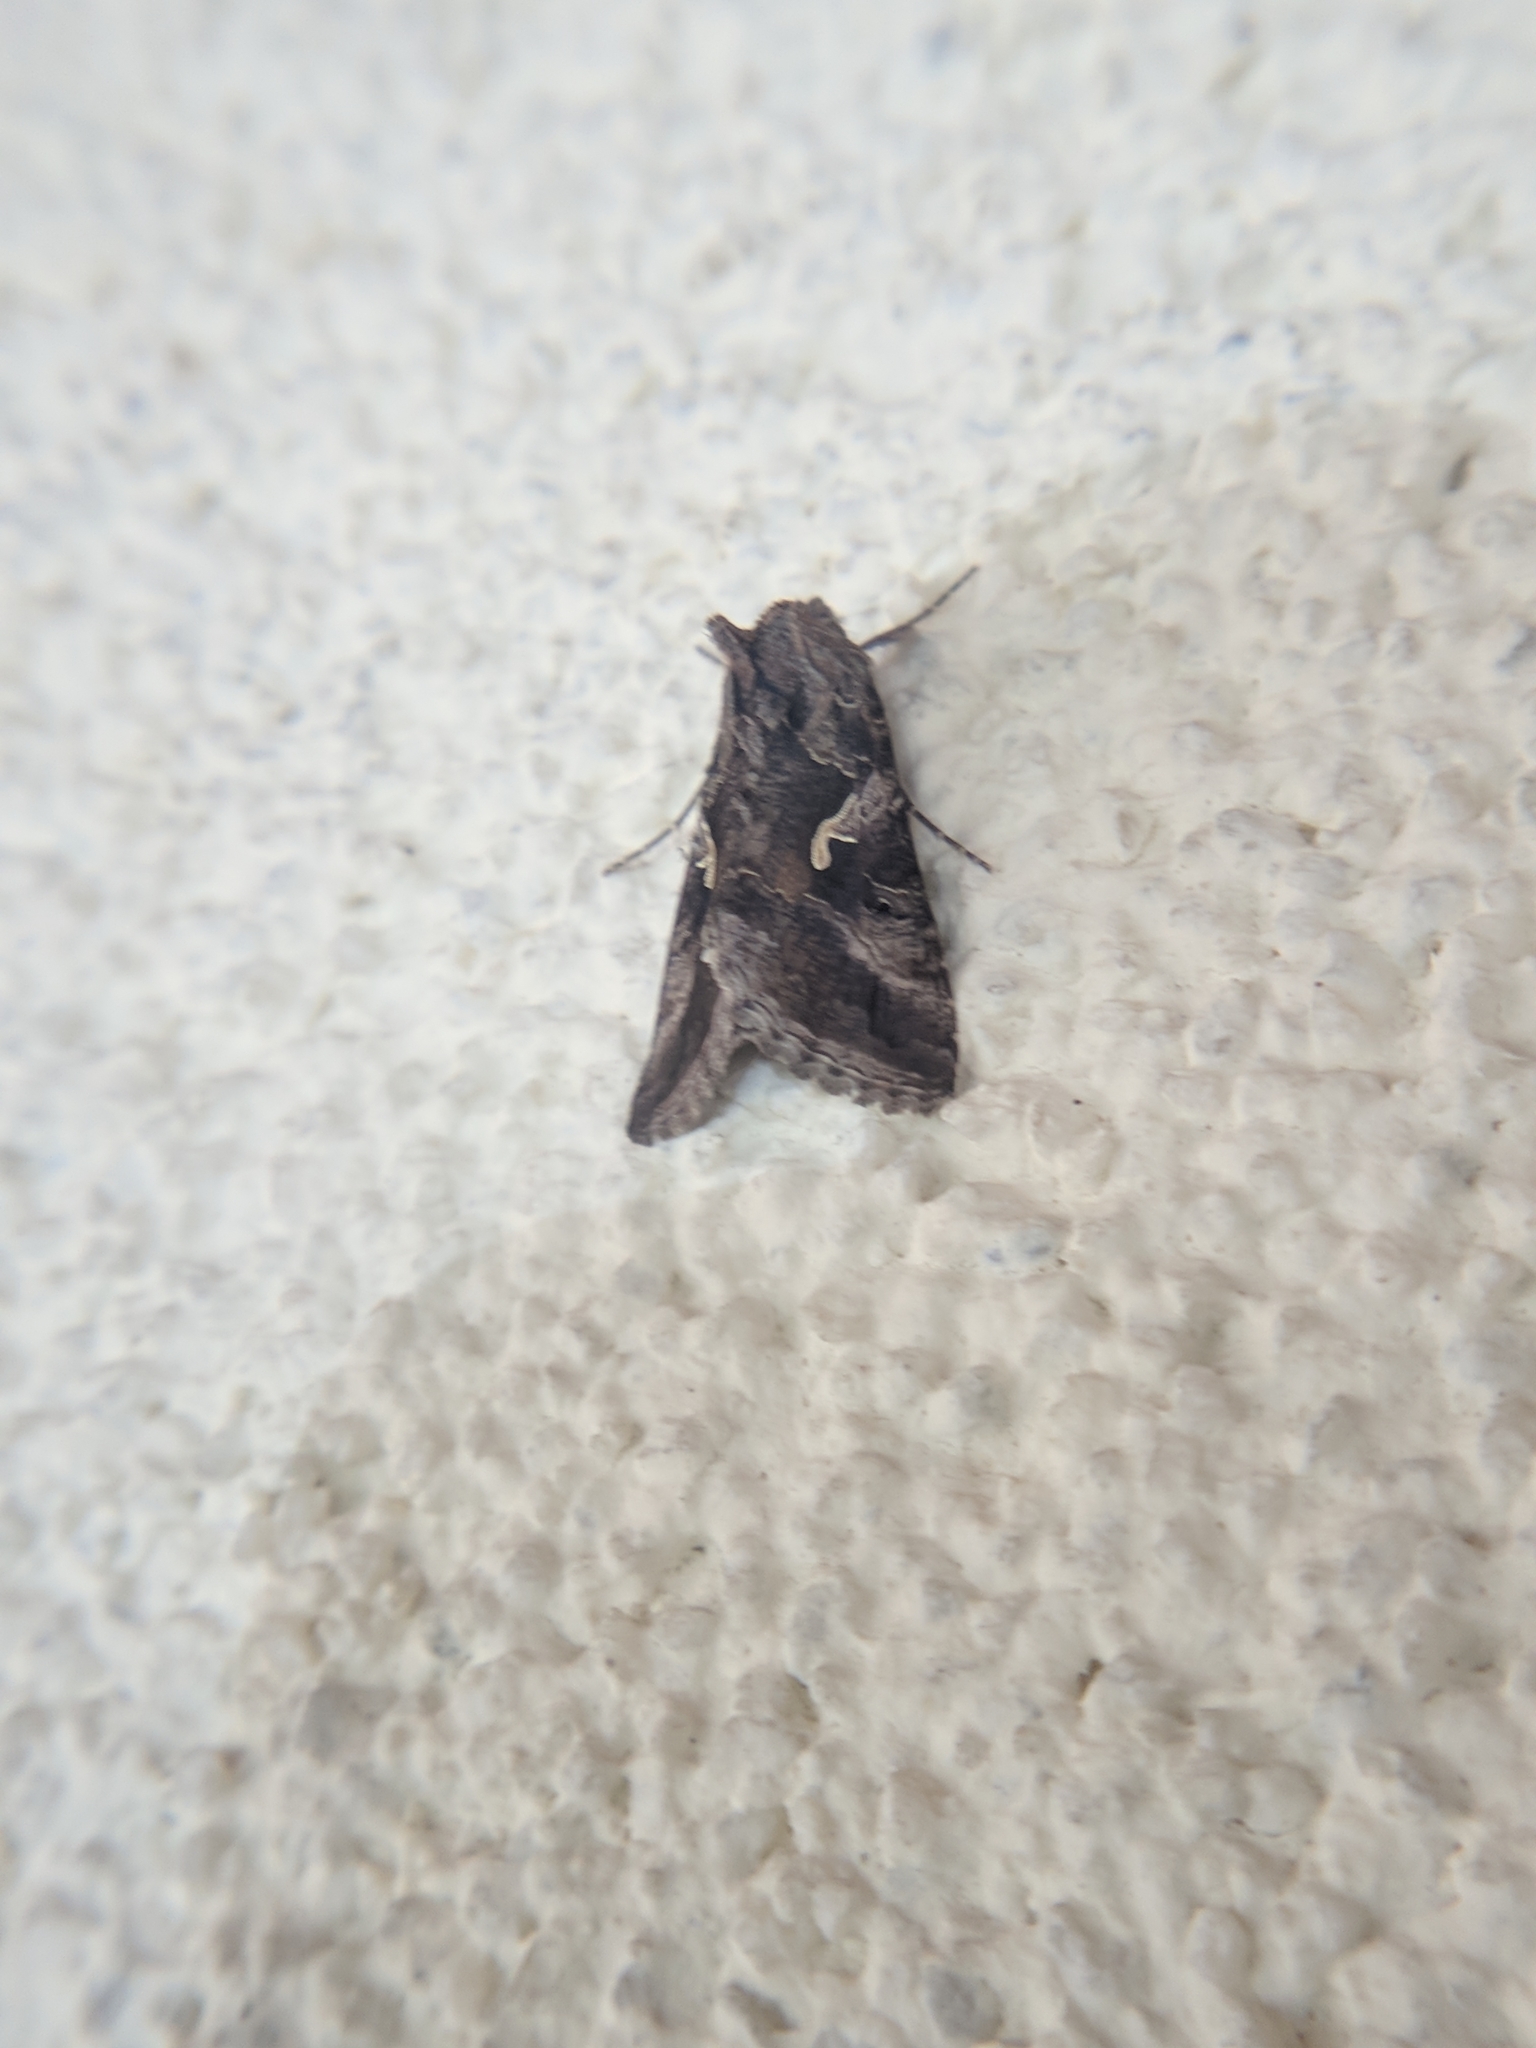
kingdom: Animalia
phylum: Arthropoda
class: Insecta
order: Lepidoptera
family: Noctuidae
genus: Autographa
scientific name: Autographa gamma
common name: Silver y
